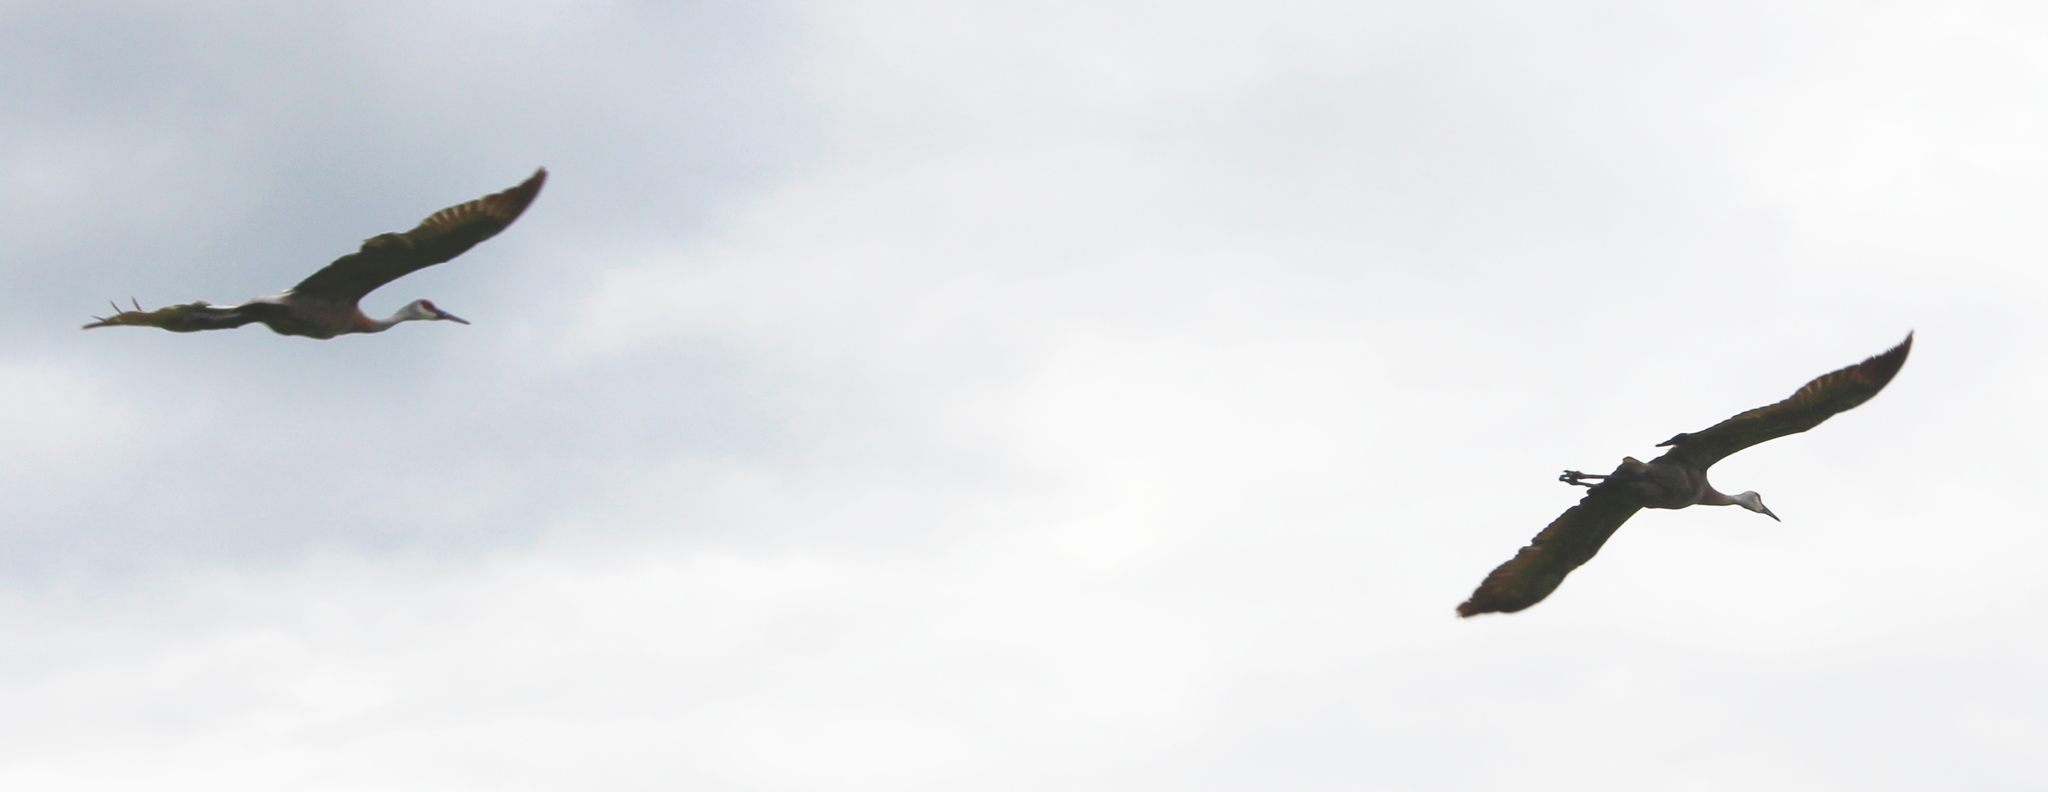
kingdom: Animalia
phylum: Chordata
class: Aves
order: Gruiformes
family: Gruidae
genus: Grus
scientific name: Grus canadensis
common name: Sandhill crane
